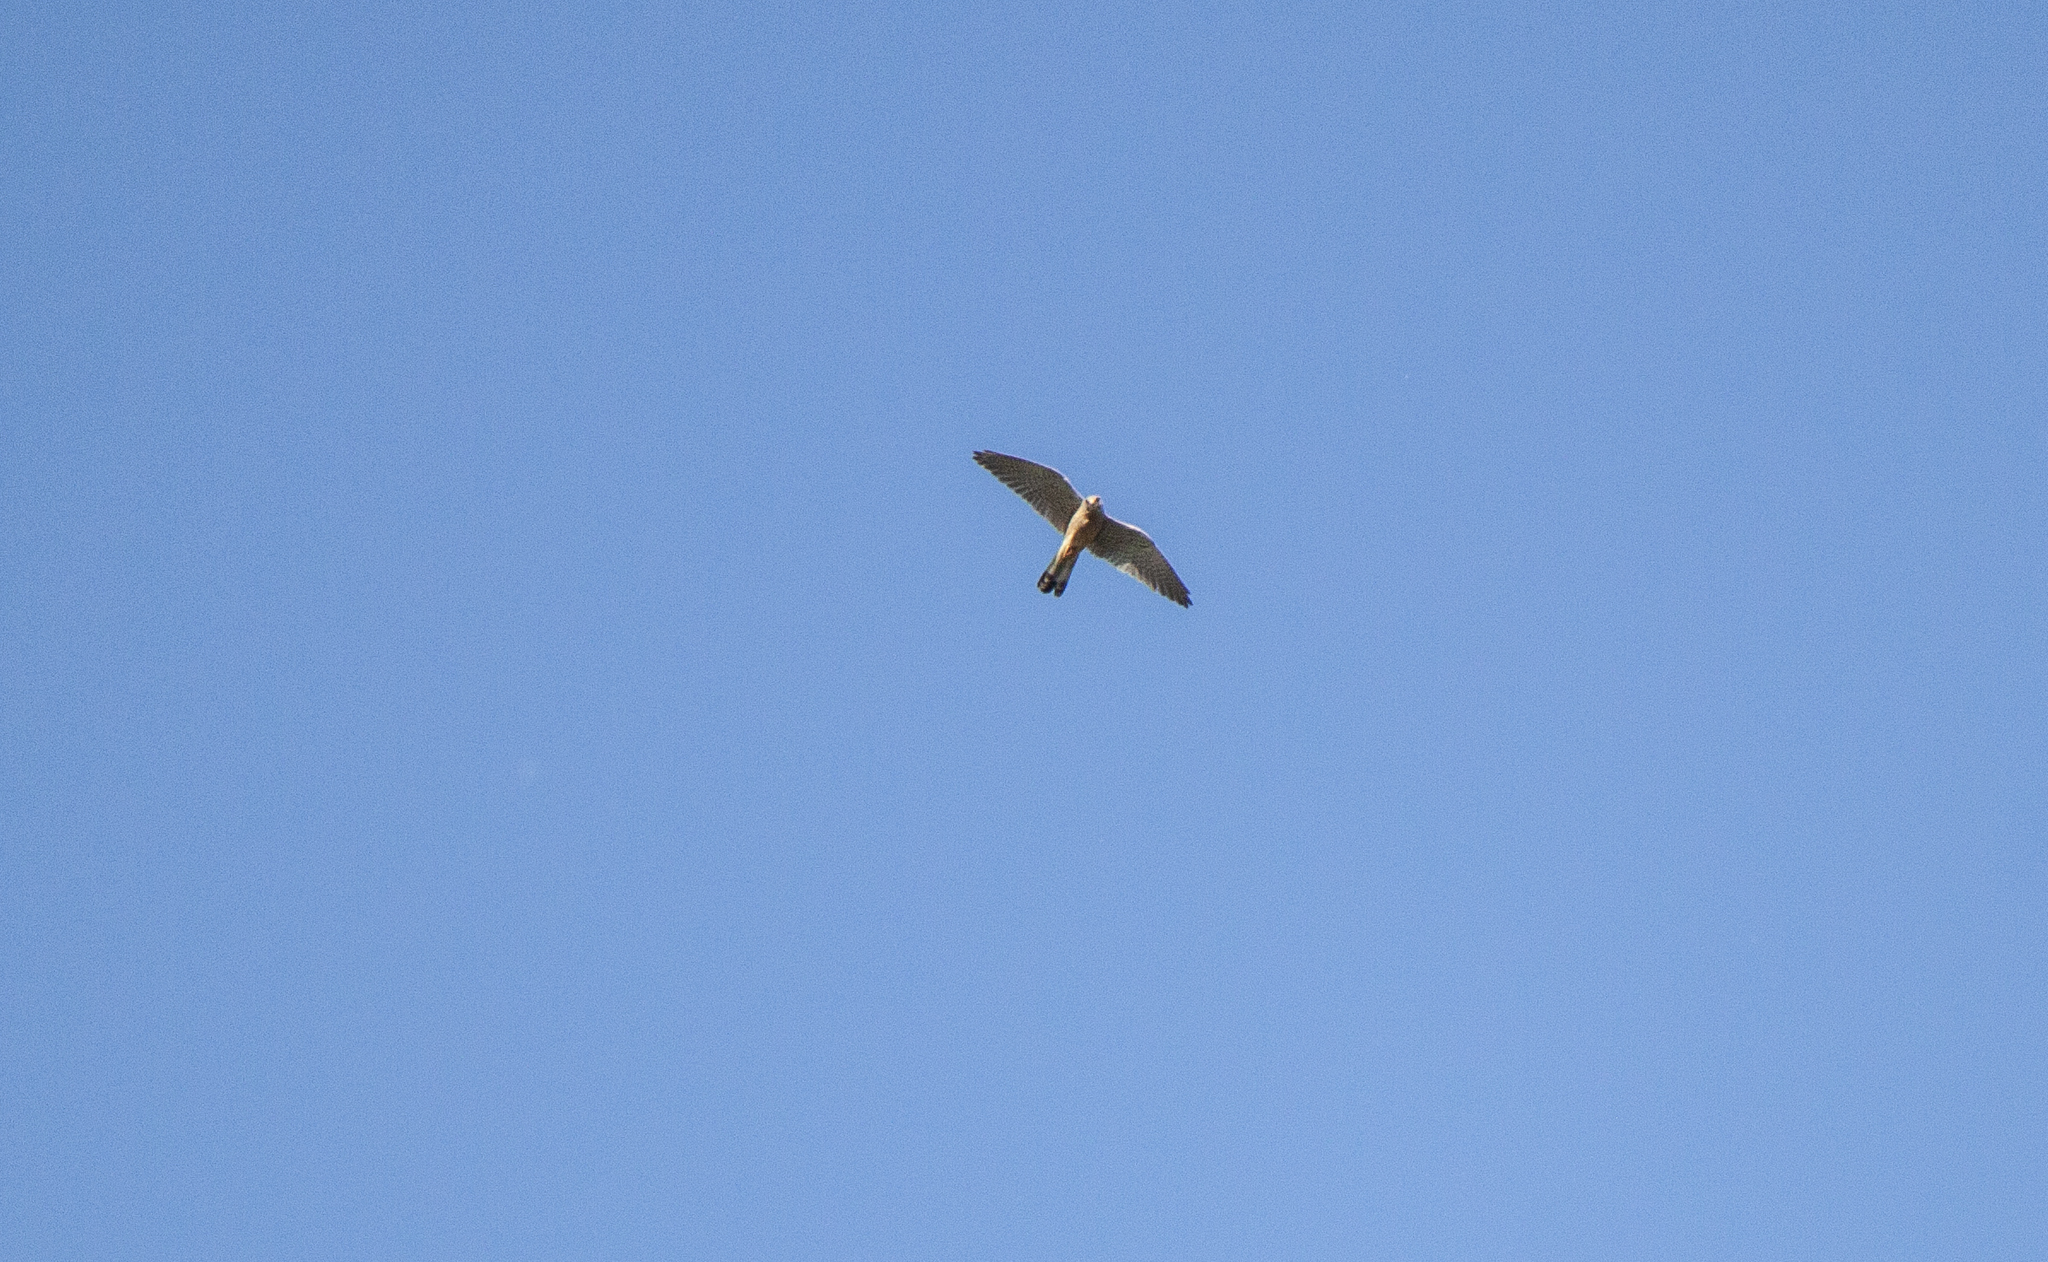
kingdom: Animalia
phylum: Chordata
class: Aves
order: Falconiformes
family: Falconidae
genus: Falco
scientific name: Falco tinnunculus
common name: Common kestrel
